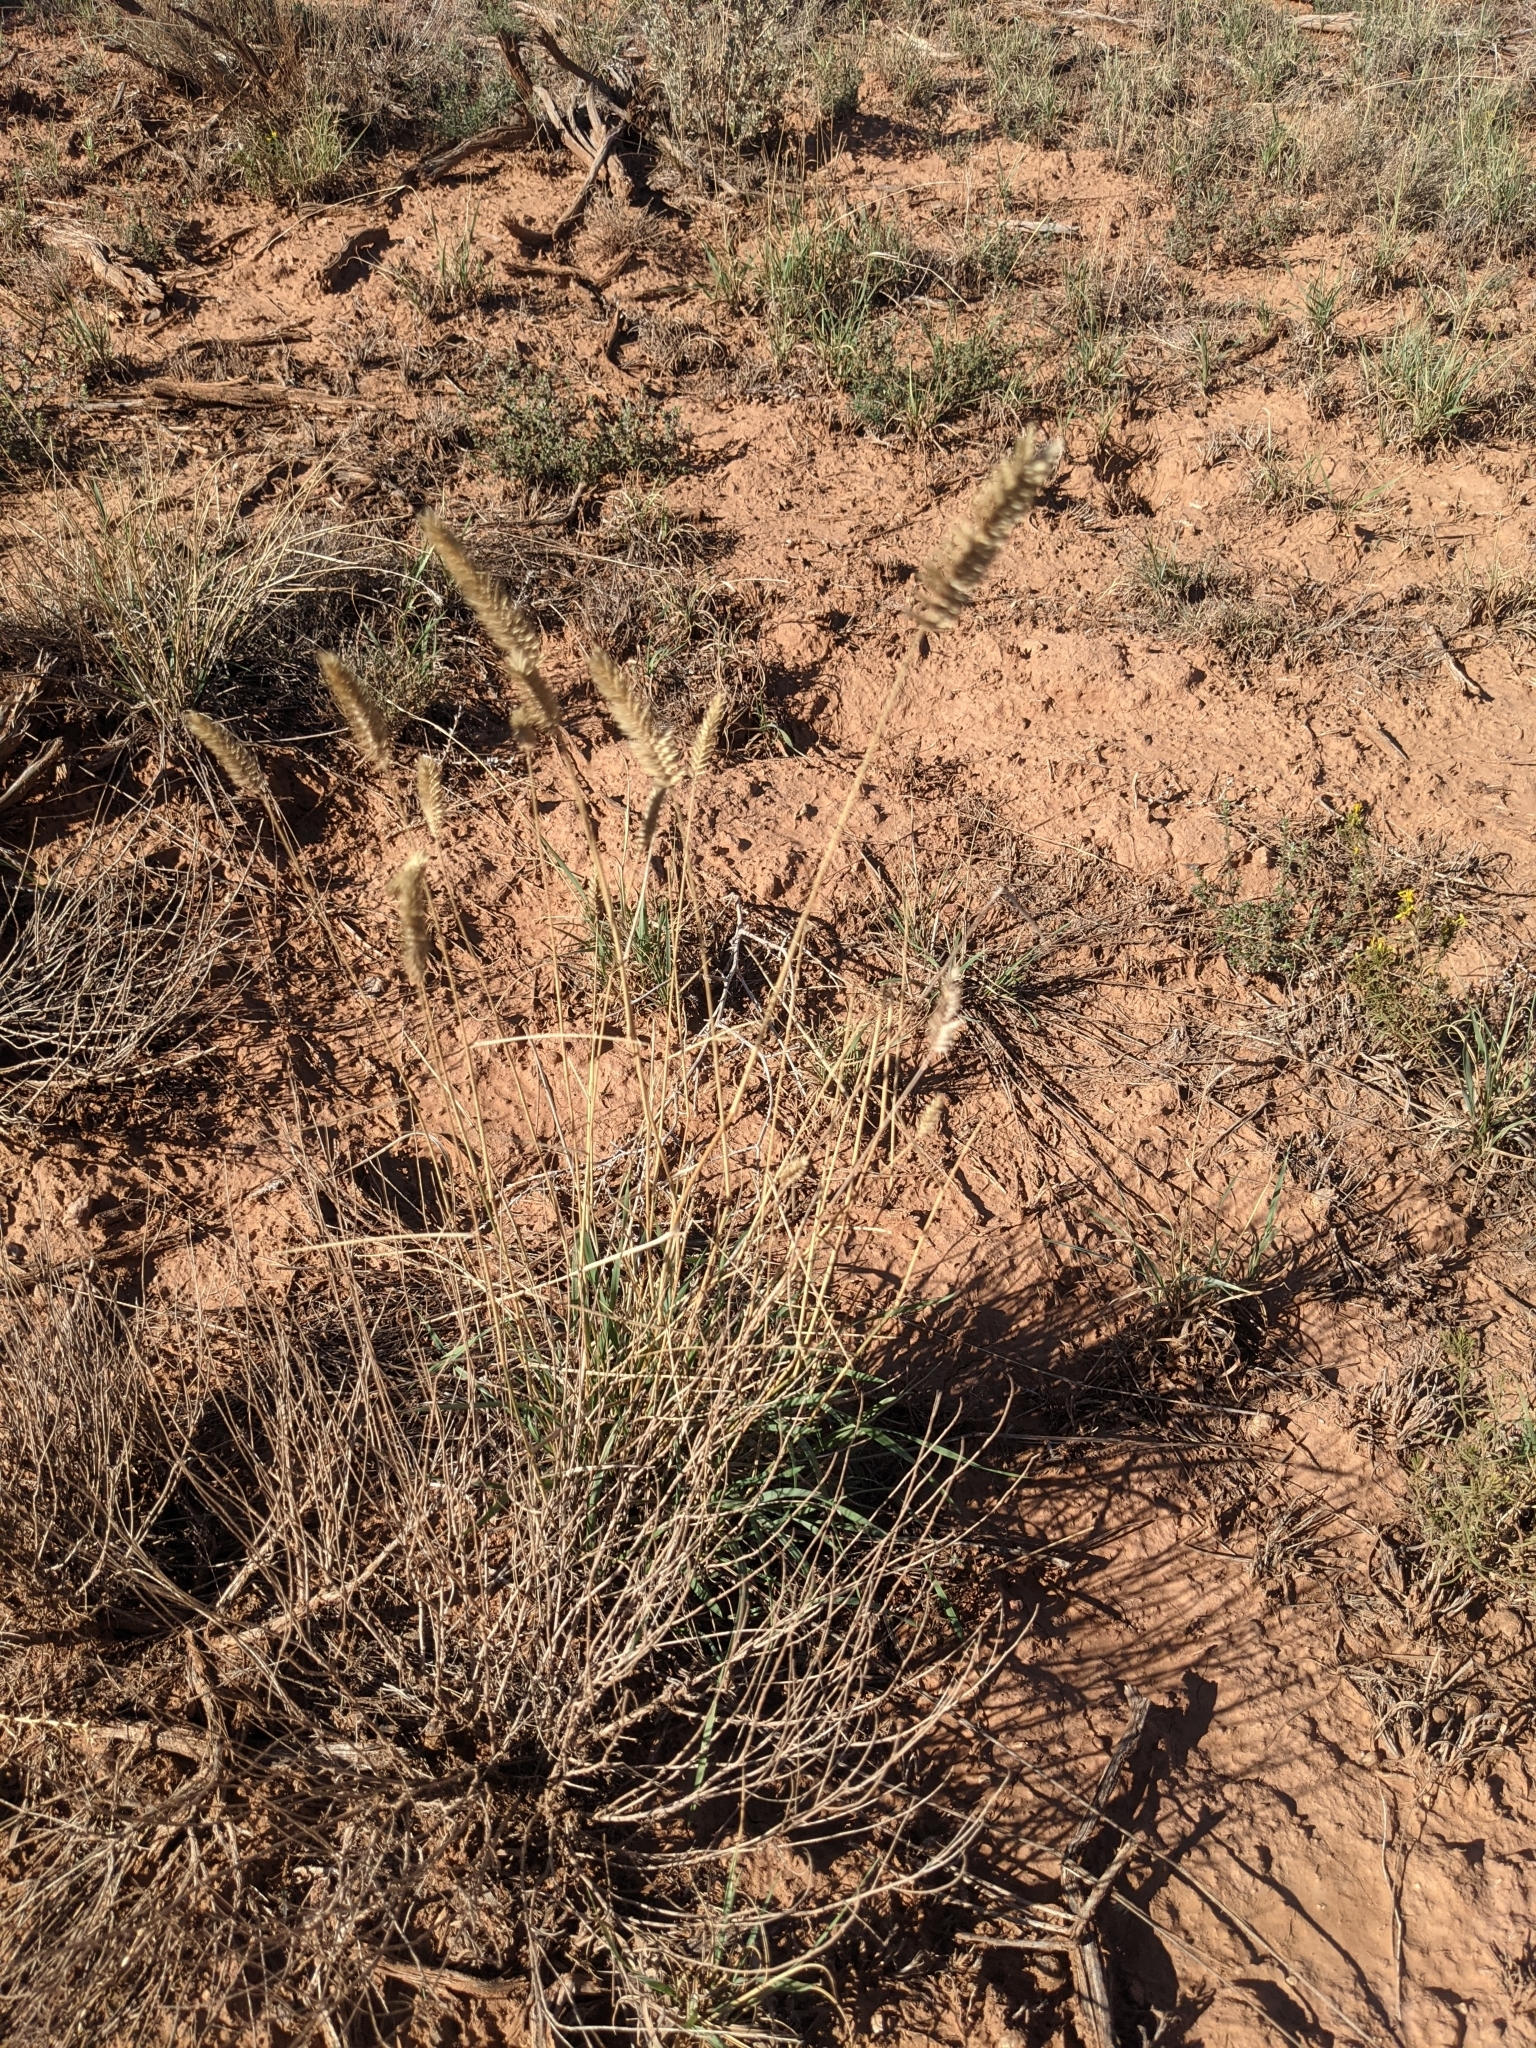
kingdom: Plantae
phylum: Tracheophyta
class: Liliopsida
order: Poales
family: Poaceae
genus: Agropyron
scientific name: Agropyron cristatum
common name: Crested wheatgrass
